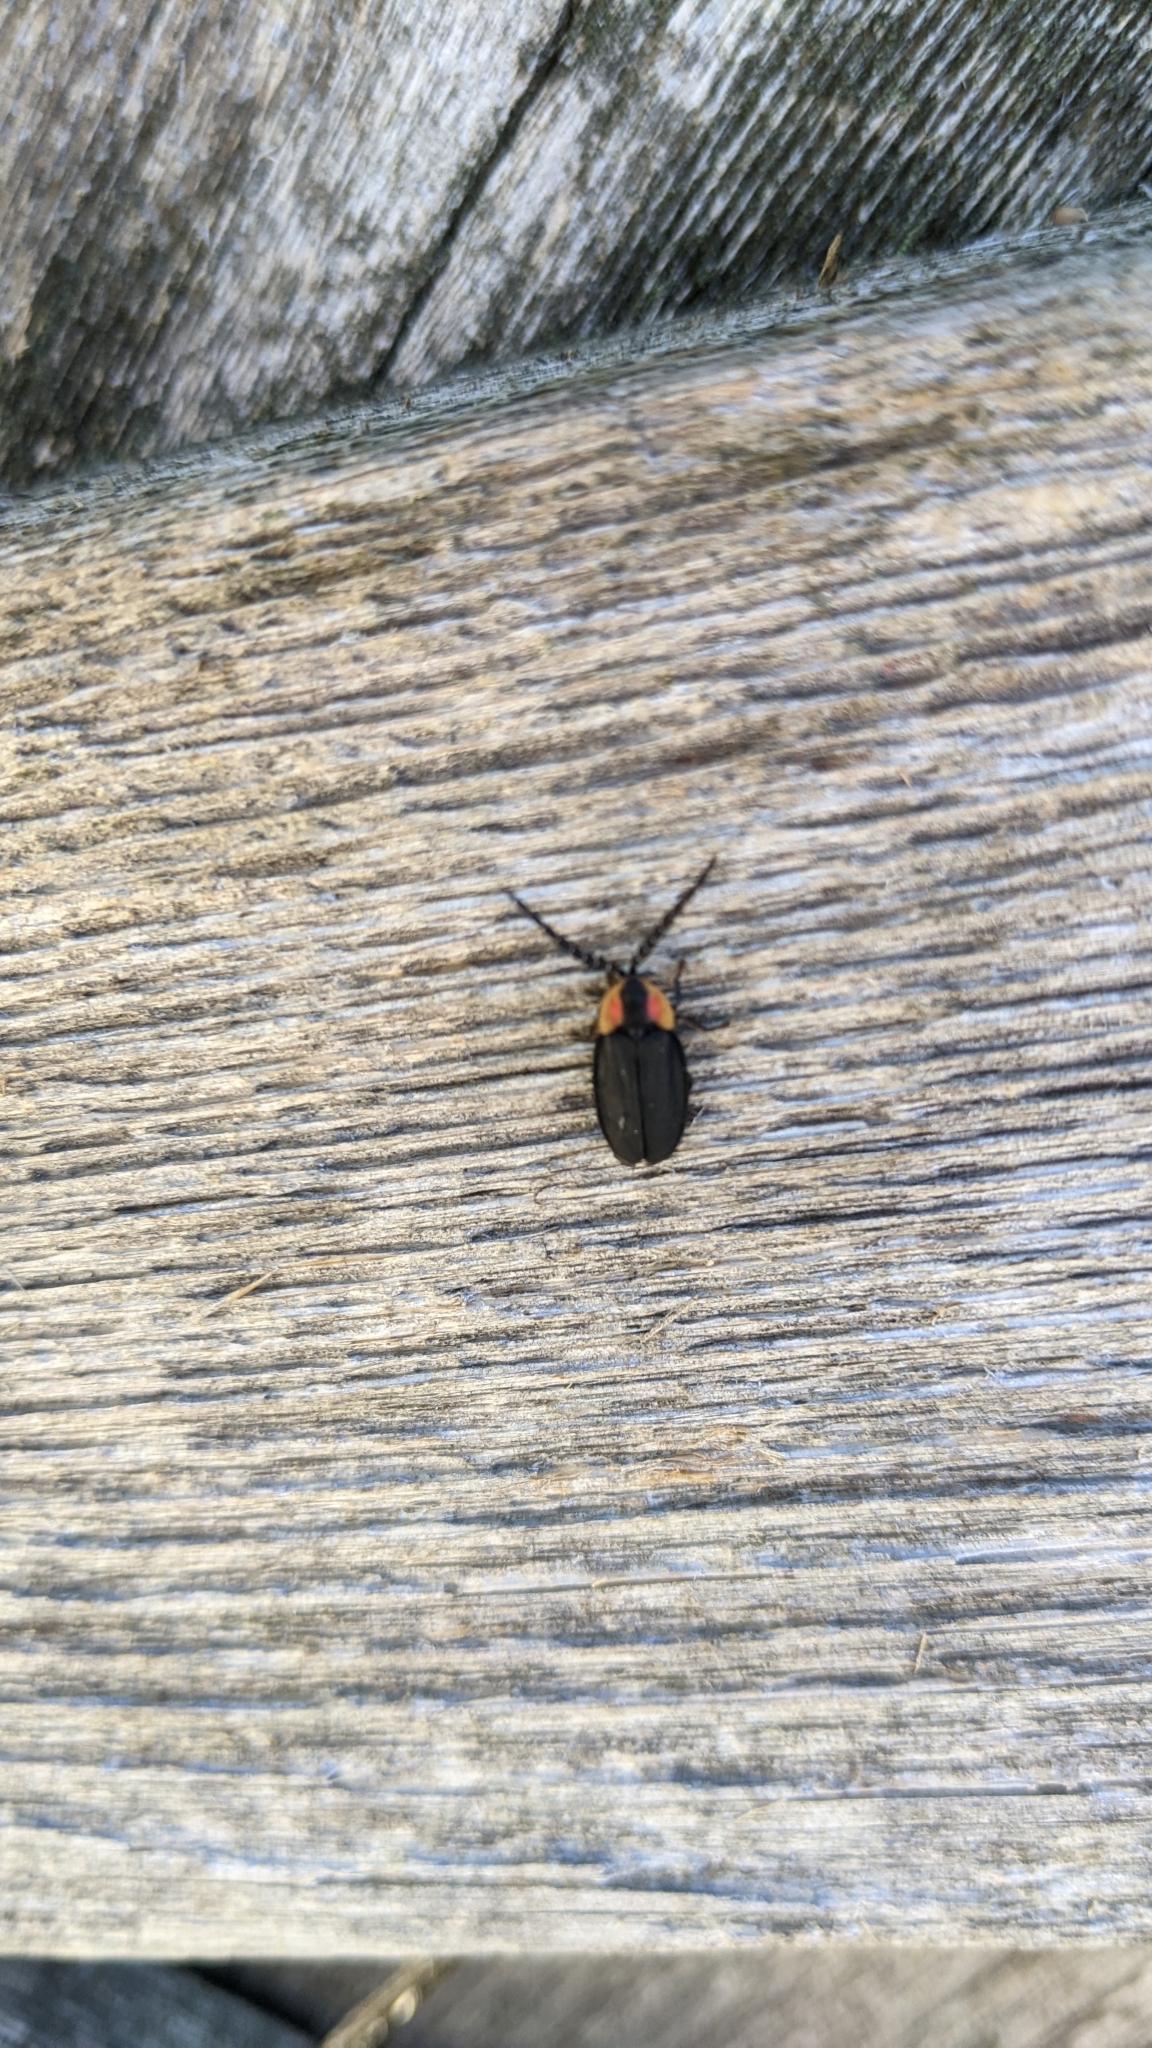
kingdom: Animalia
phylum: Arthropoda
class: Insecta
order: Coleoptera
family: Lampyridae
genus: Lucidota
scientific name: Lucidota atra
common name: Black firefly
